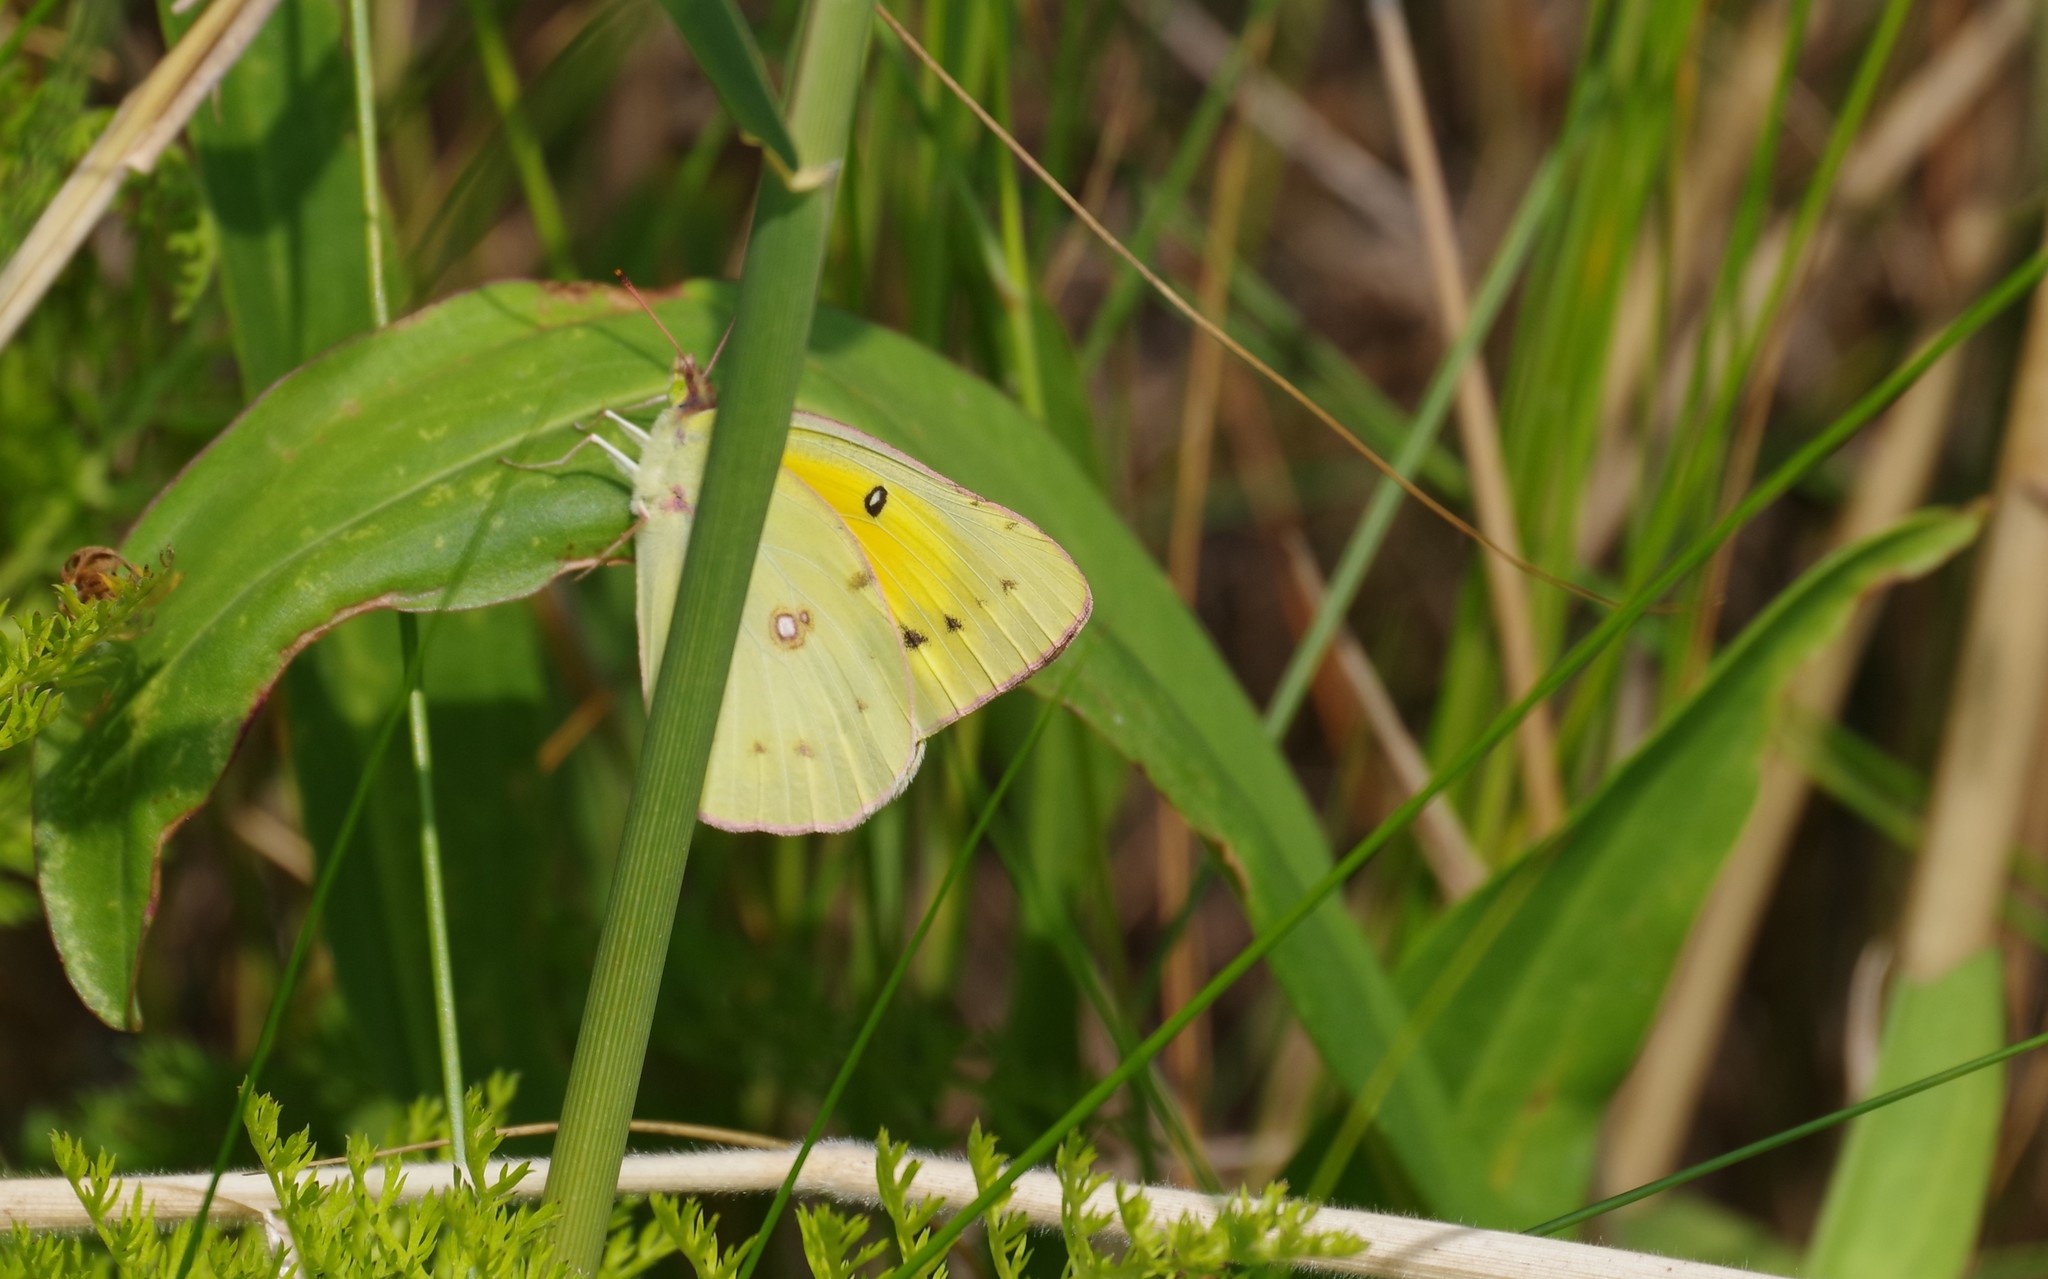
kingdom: Animalia
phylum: Arthropoda
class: Insecta
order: Lepidoptera
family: Pieridae
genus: Colias
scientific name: Colias eurytheme
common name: Alfalfa butterfly
